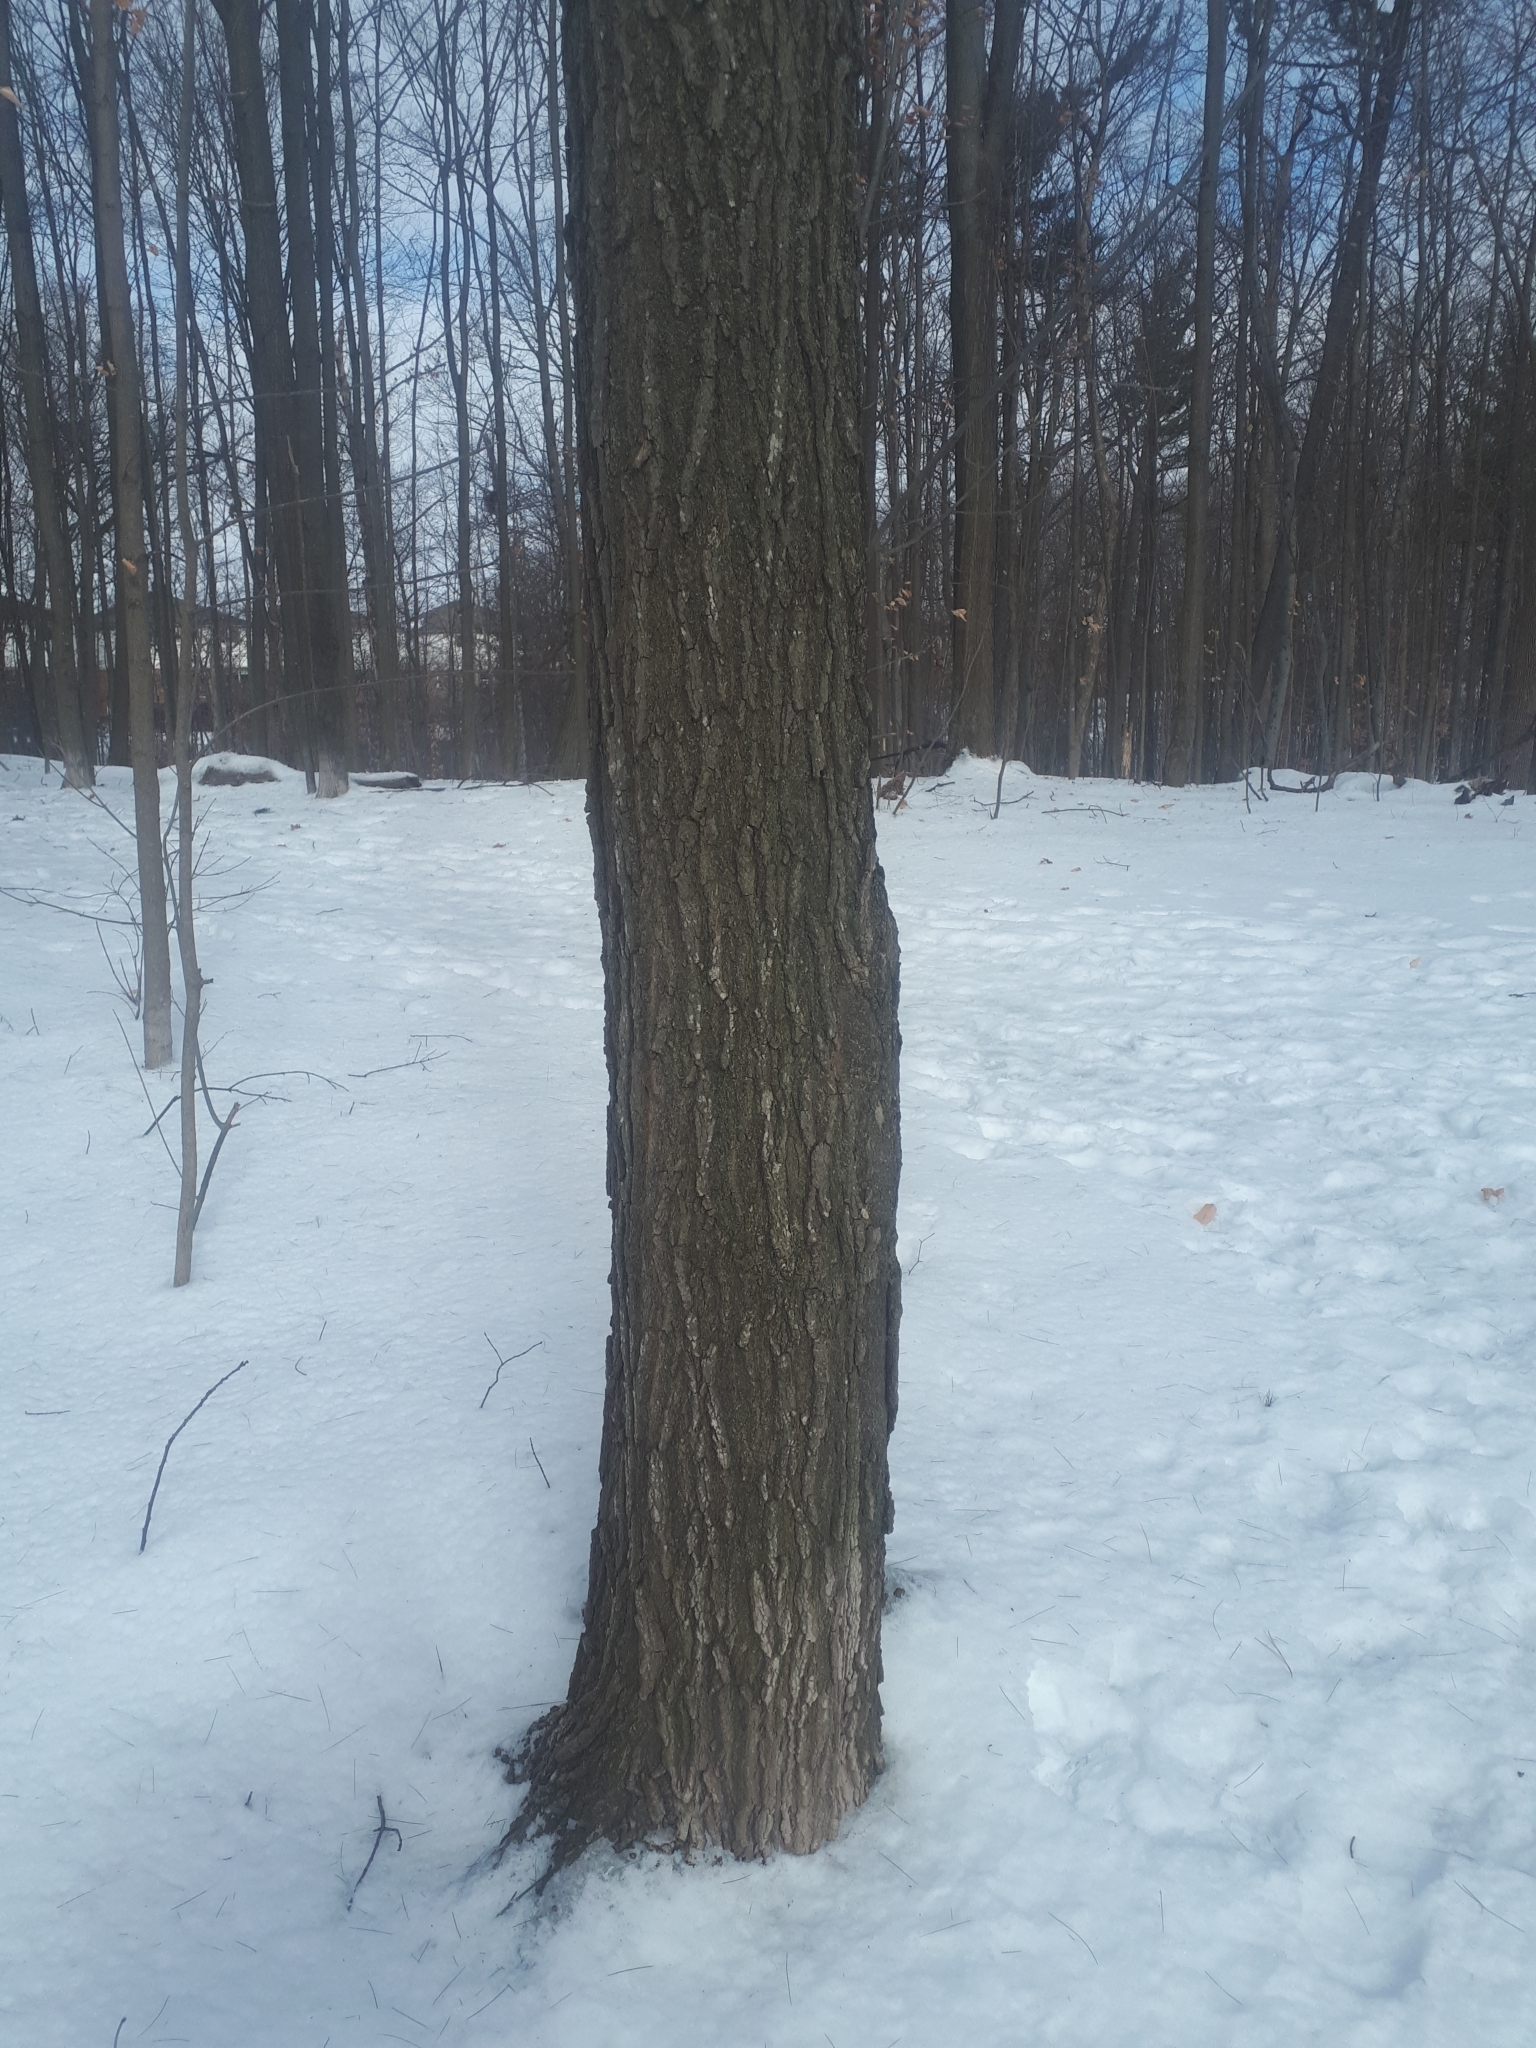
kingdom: Plantae
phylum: Tracheophyta
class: Magnoliopsida
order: Sapindales
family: Sapindaceae
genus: Acer
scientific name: Acer saccharum
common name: Sugar maple
